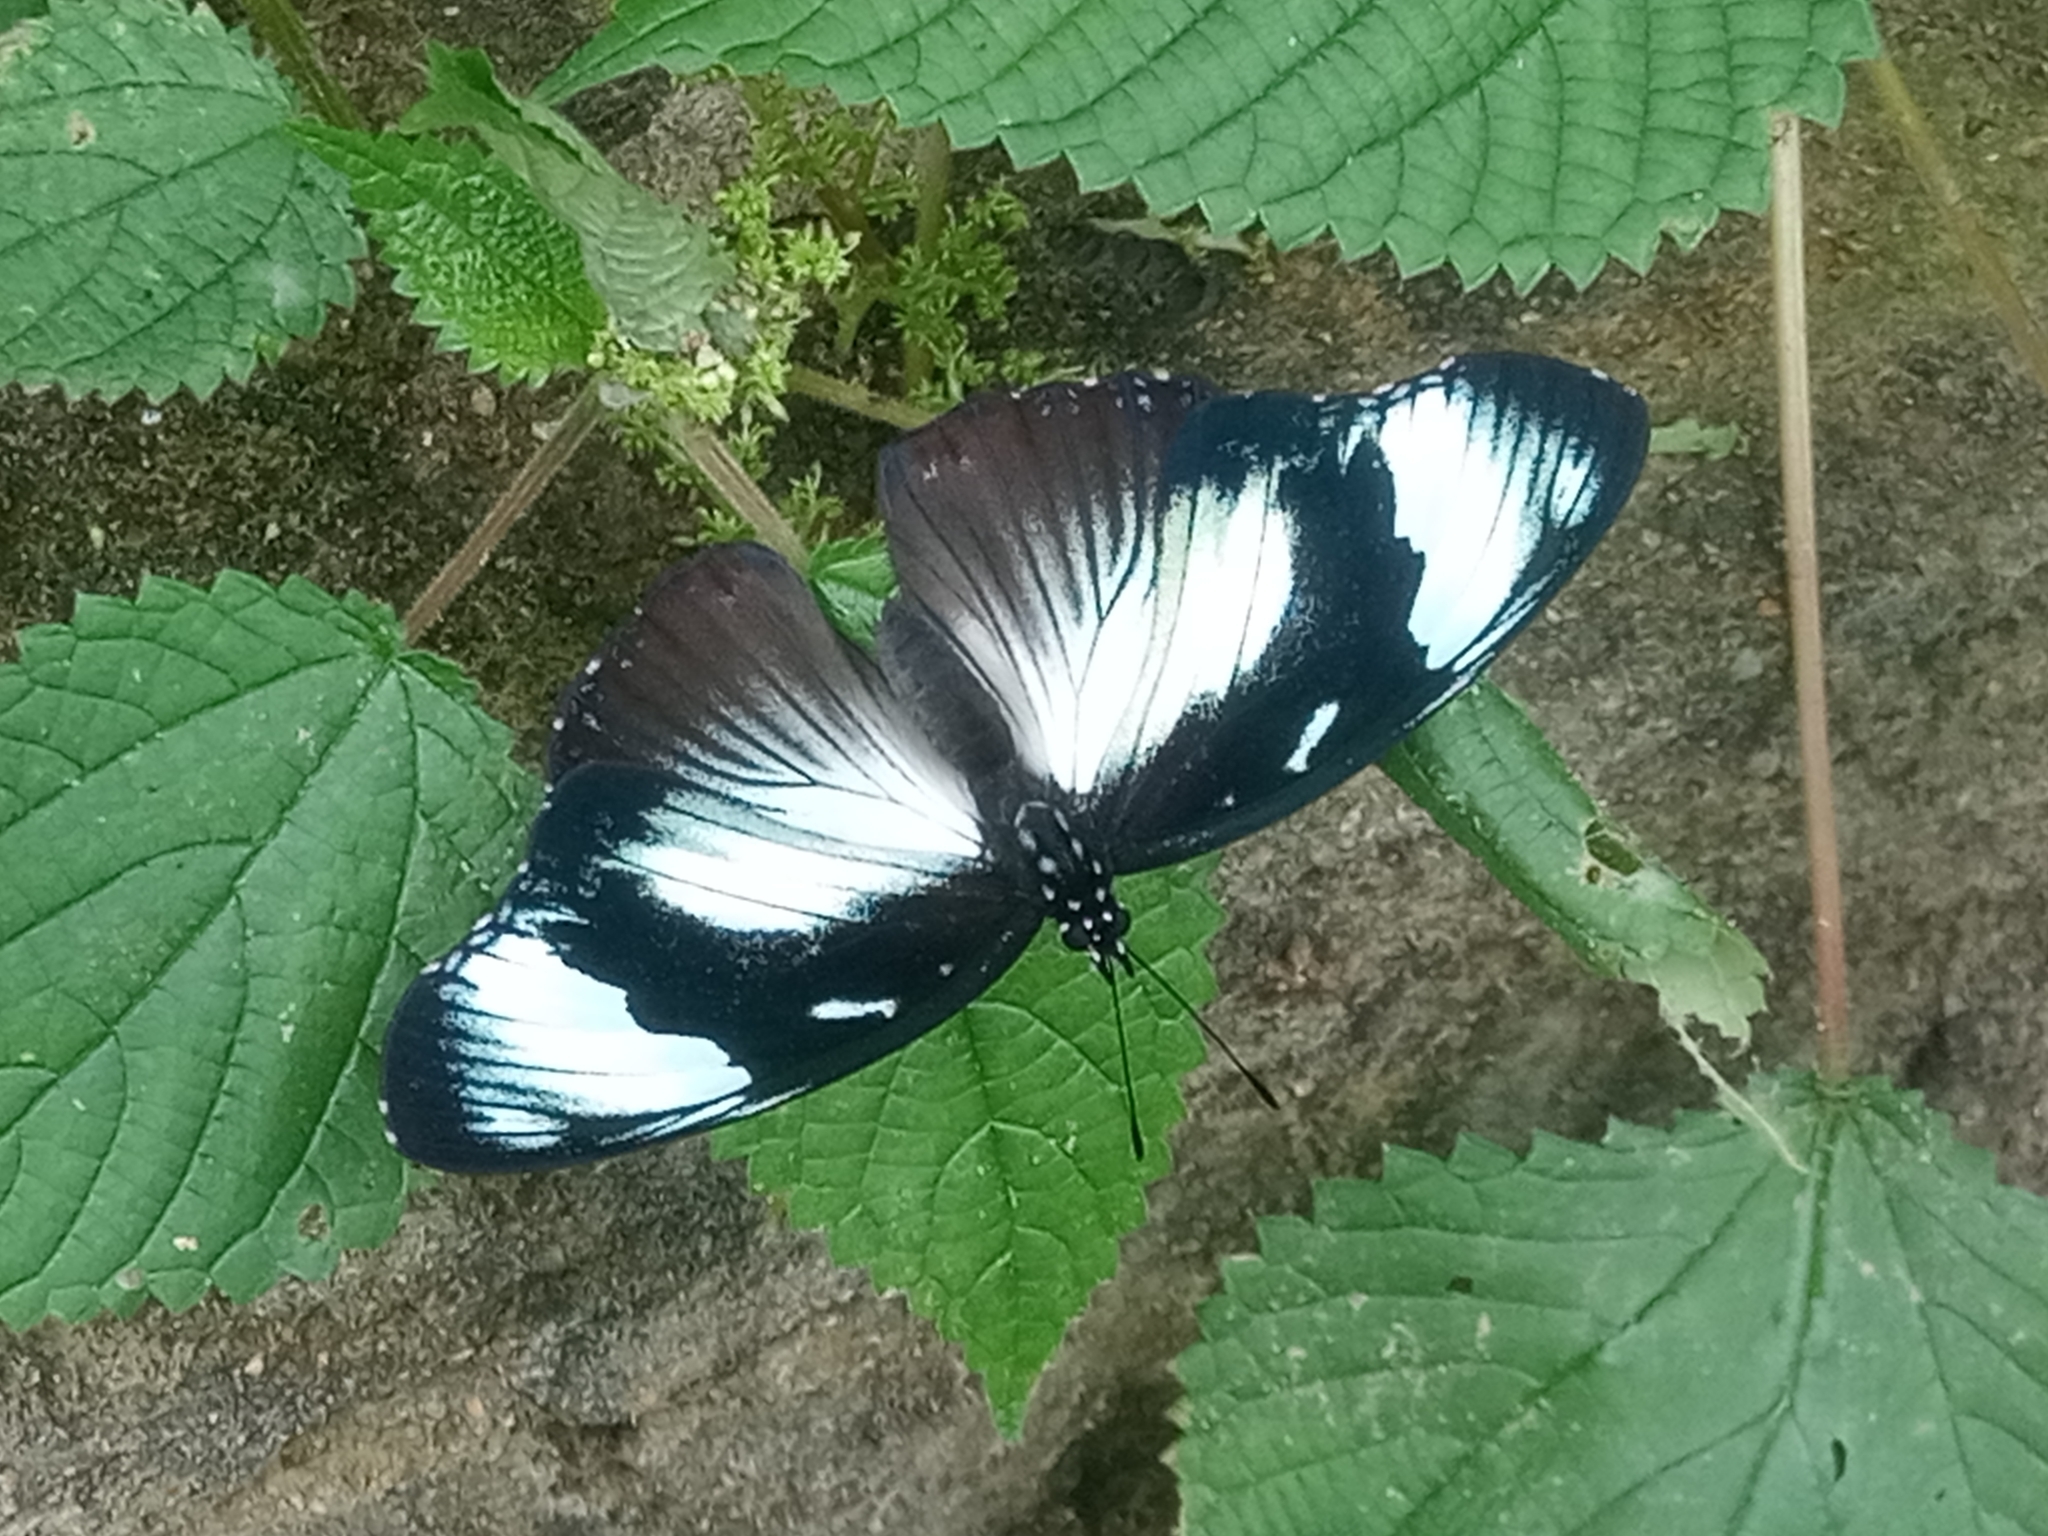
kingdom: Animalia
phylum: Arthropoda
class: Insecta
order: Lepidoptera
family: Nymphalidae
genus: Hypolimnas
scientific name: Hypolimnas dubius
